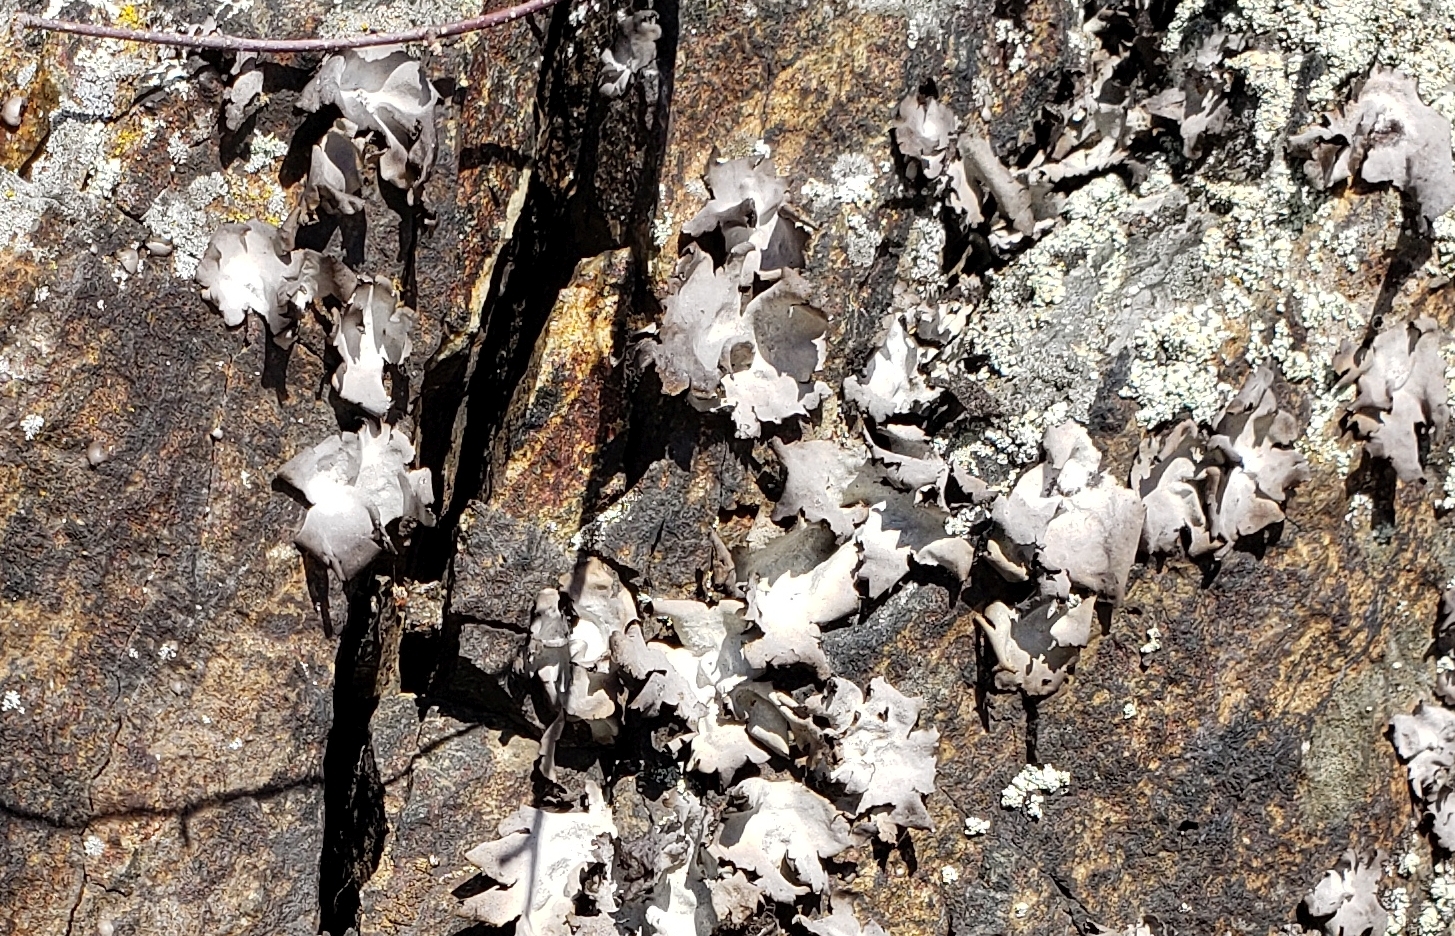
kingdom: Fungi
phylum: Ascomycota
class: Lecanoromycetes
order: Umbilicariales
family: Umbilicariaceae
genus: Umbilicaria
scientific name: Umbilicaria americana
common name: Frosted rock tripe
